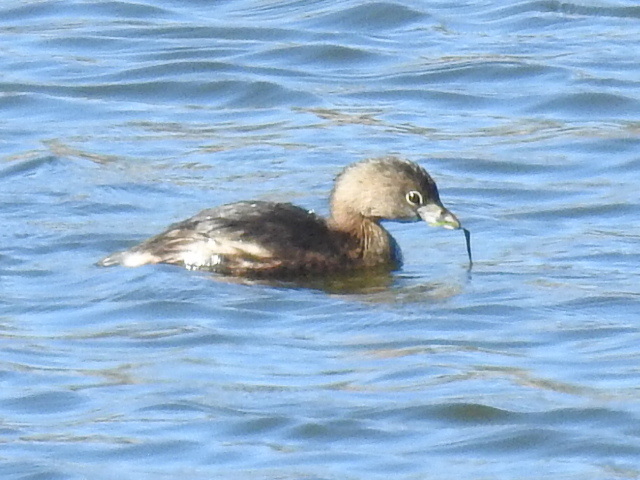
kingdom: Animalia
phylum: Chordata
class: Aves
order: Podicipediformes
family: Podicipedidae
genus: Podilymbus
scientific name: Podilymbus podiceps
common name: Pied-billed grebe
